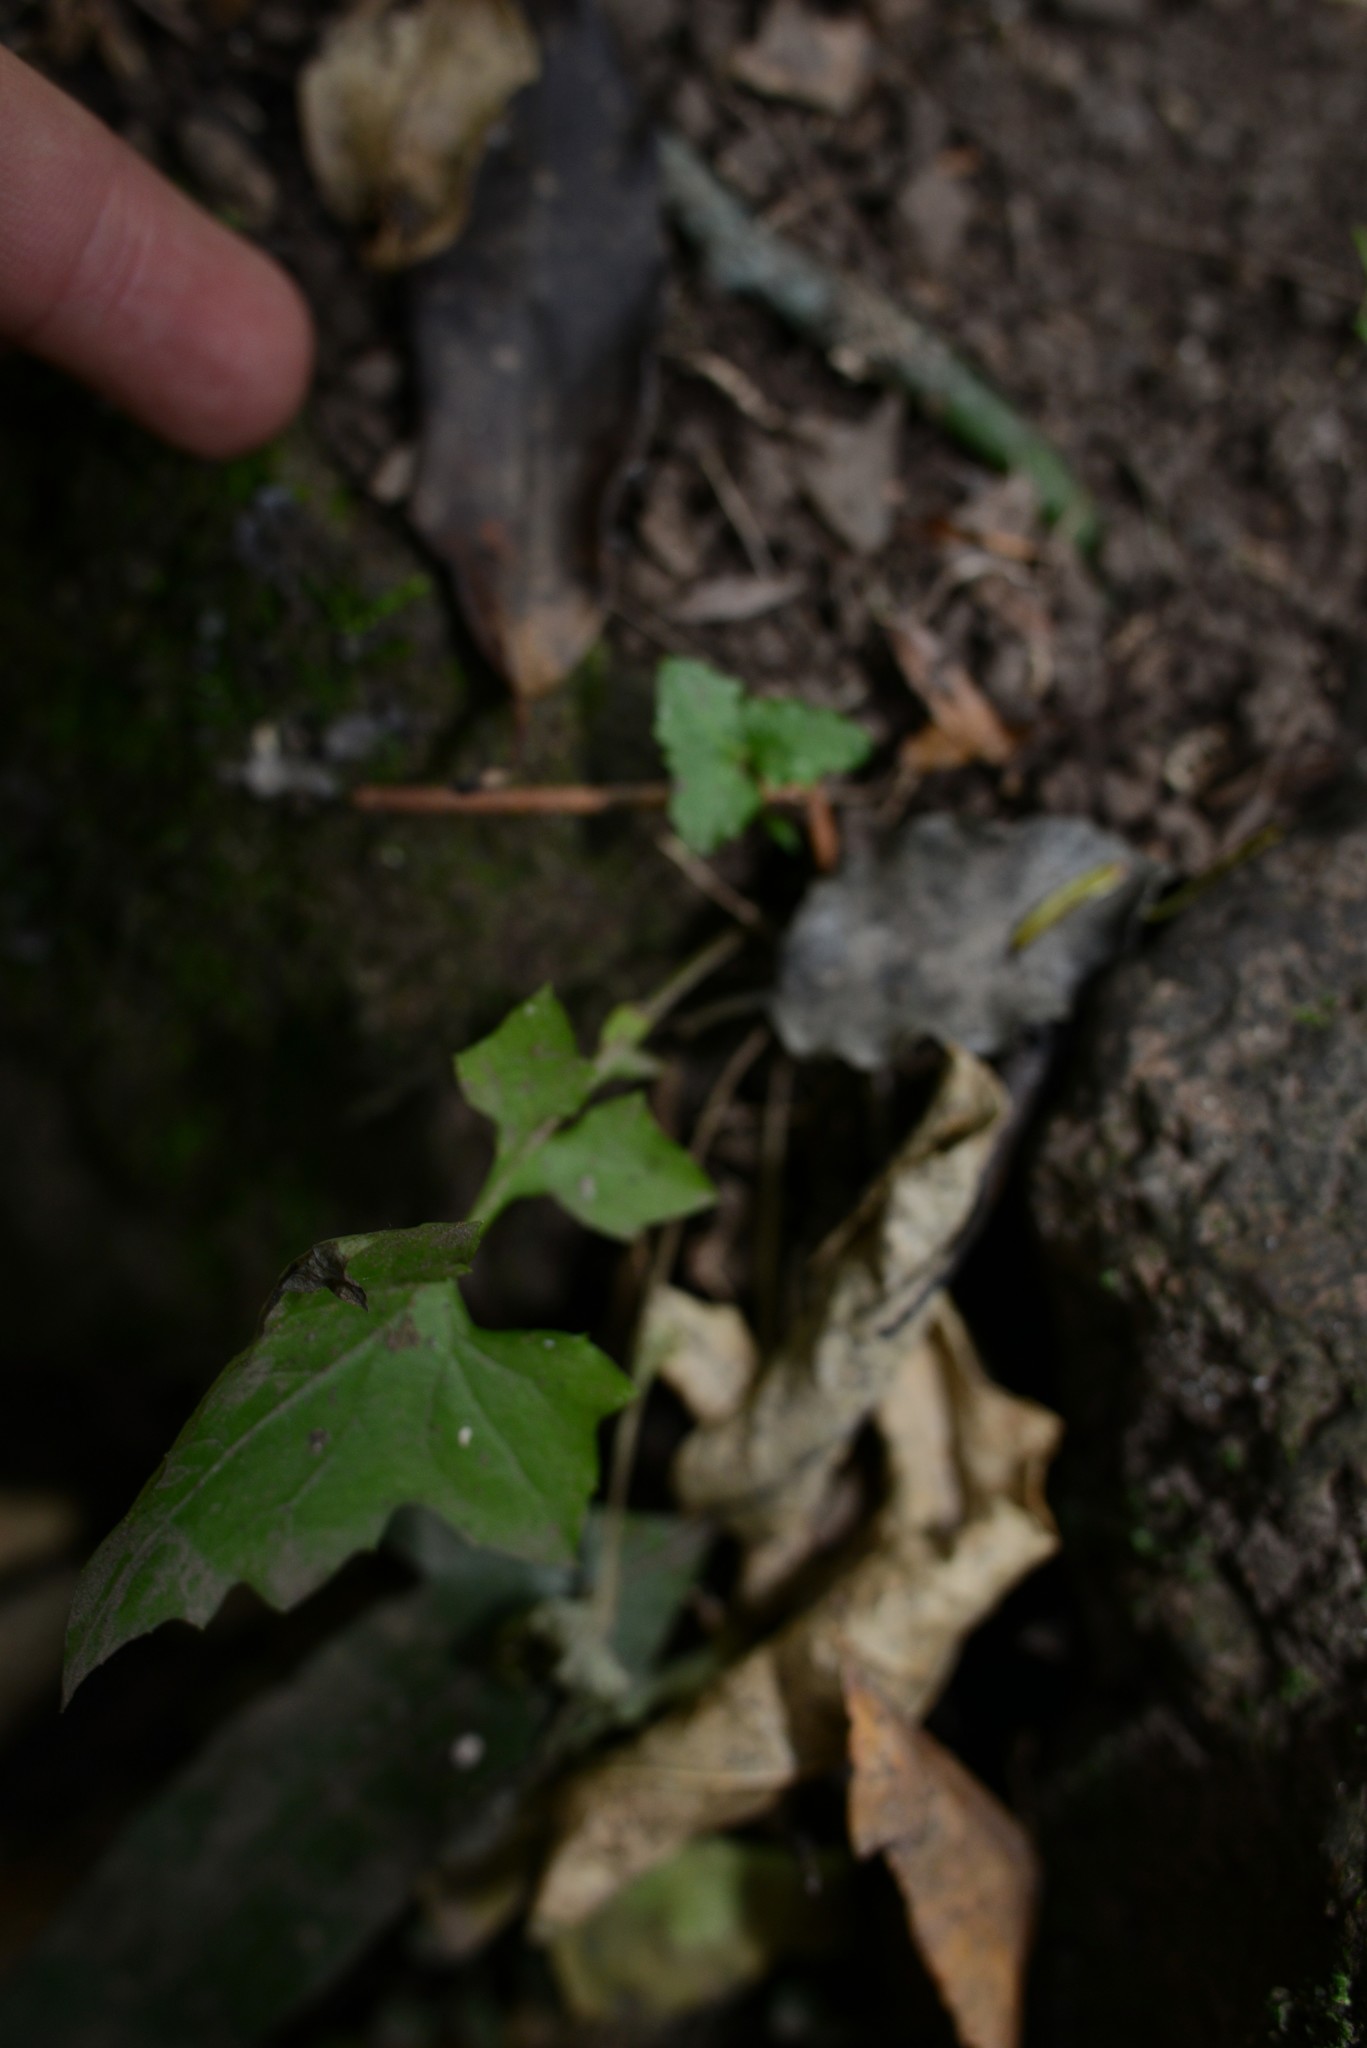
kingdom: Plantae
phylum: Tracheophyta
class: Magnoliopsida
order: Asterales
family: Asteraceae
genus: Mycelis
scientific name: Mycelis muralis
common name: Wall lettuce
